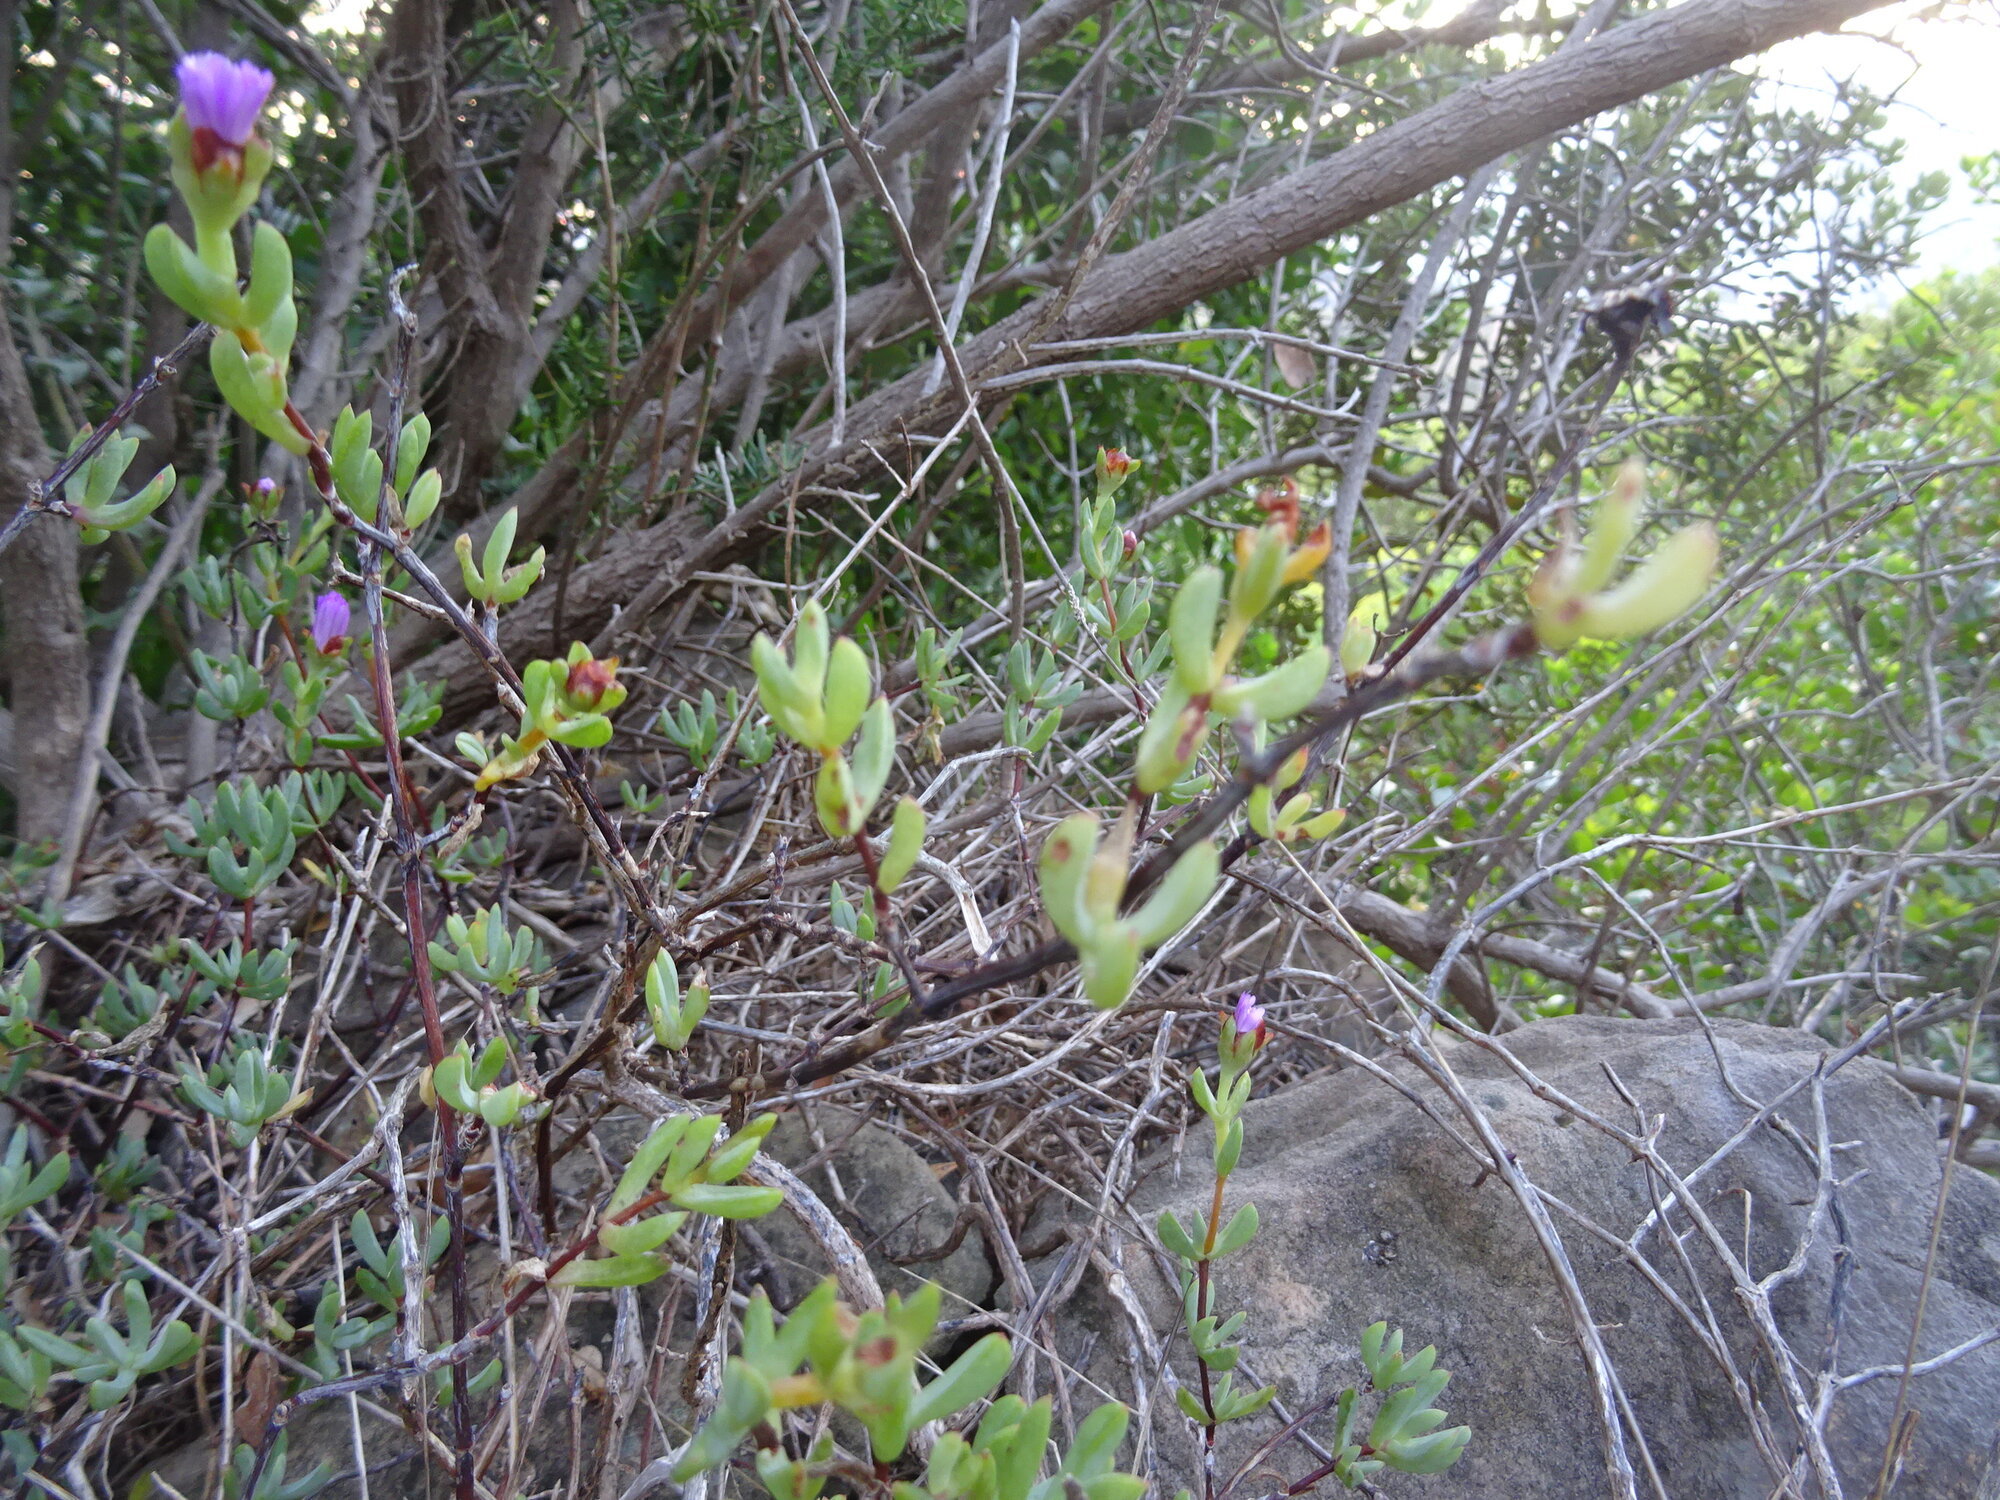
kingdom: Plantae
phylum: Tracheophyta
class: Magnoliopsida
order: Caryophyllales
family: Aizoaceae
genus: Oscularia
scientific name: Oscularia falciformis
